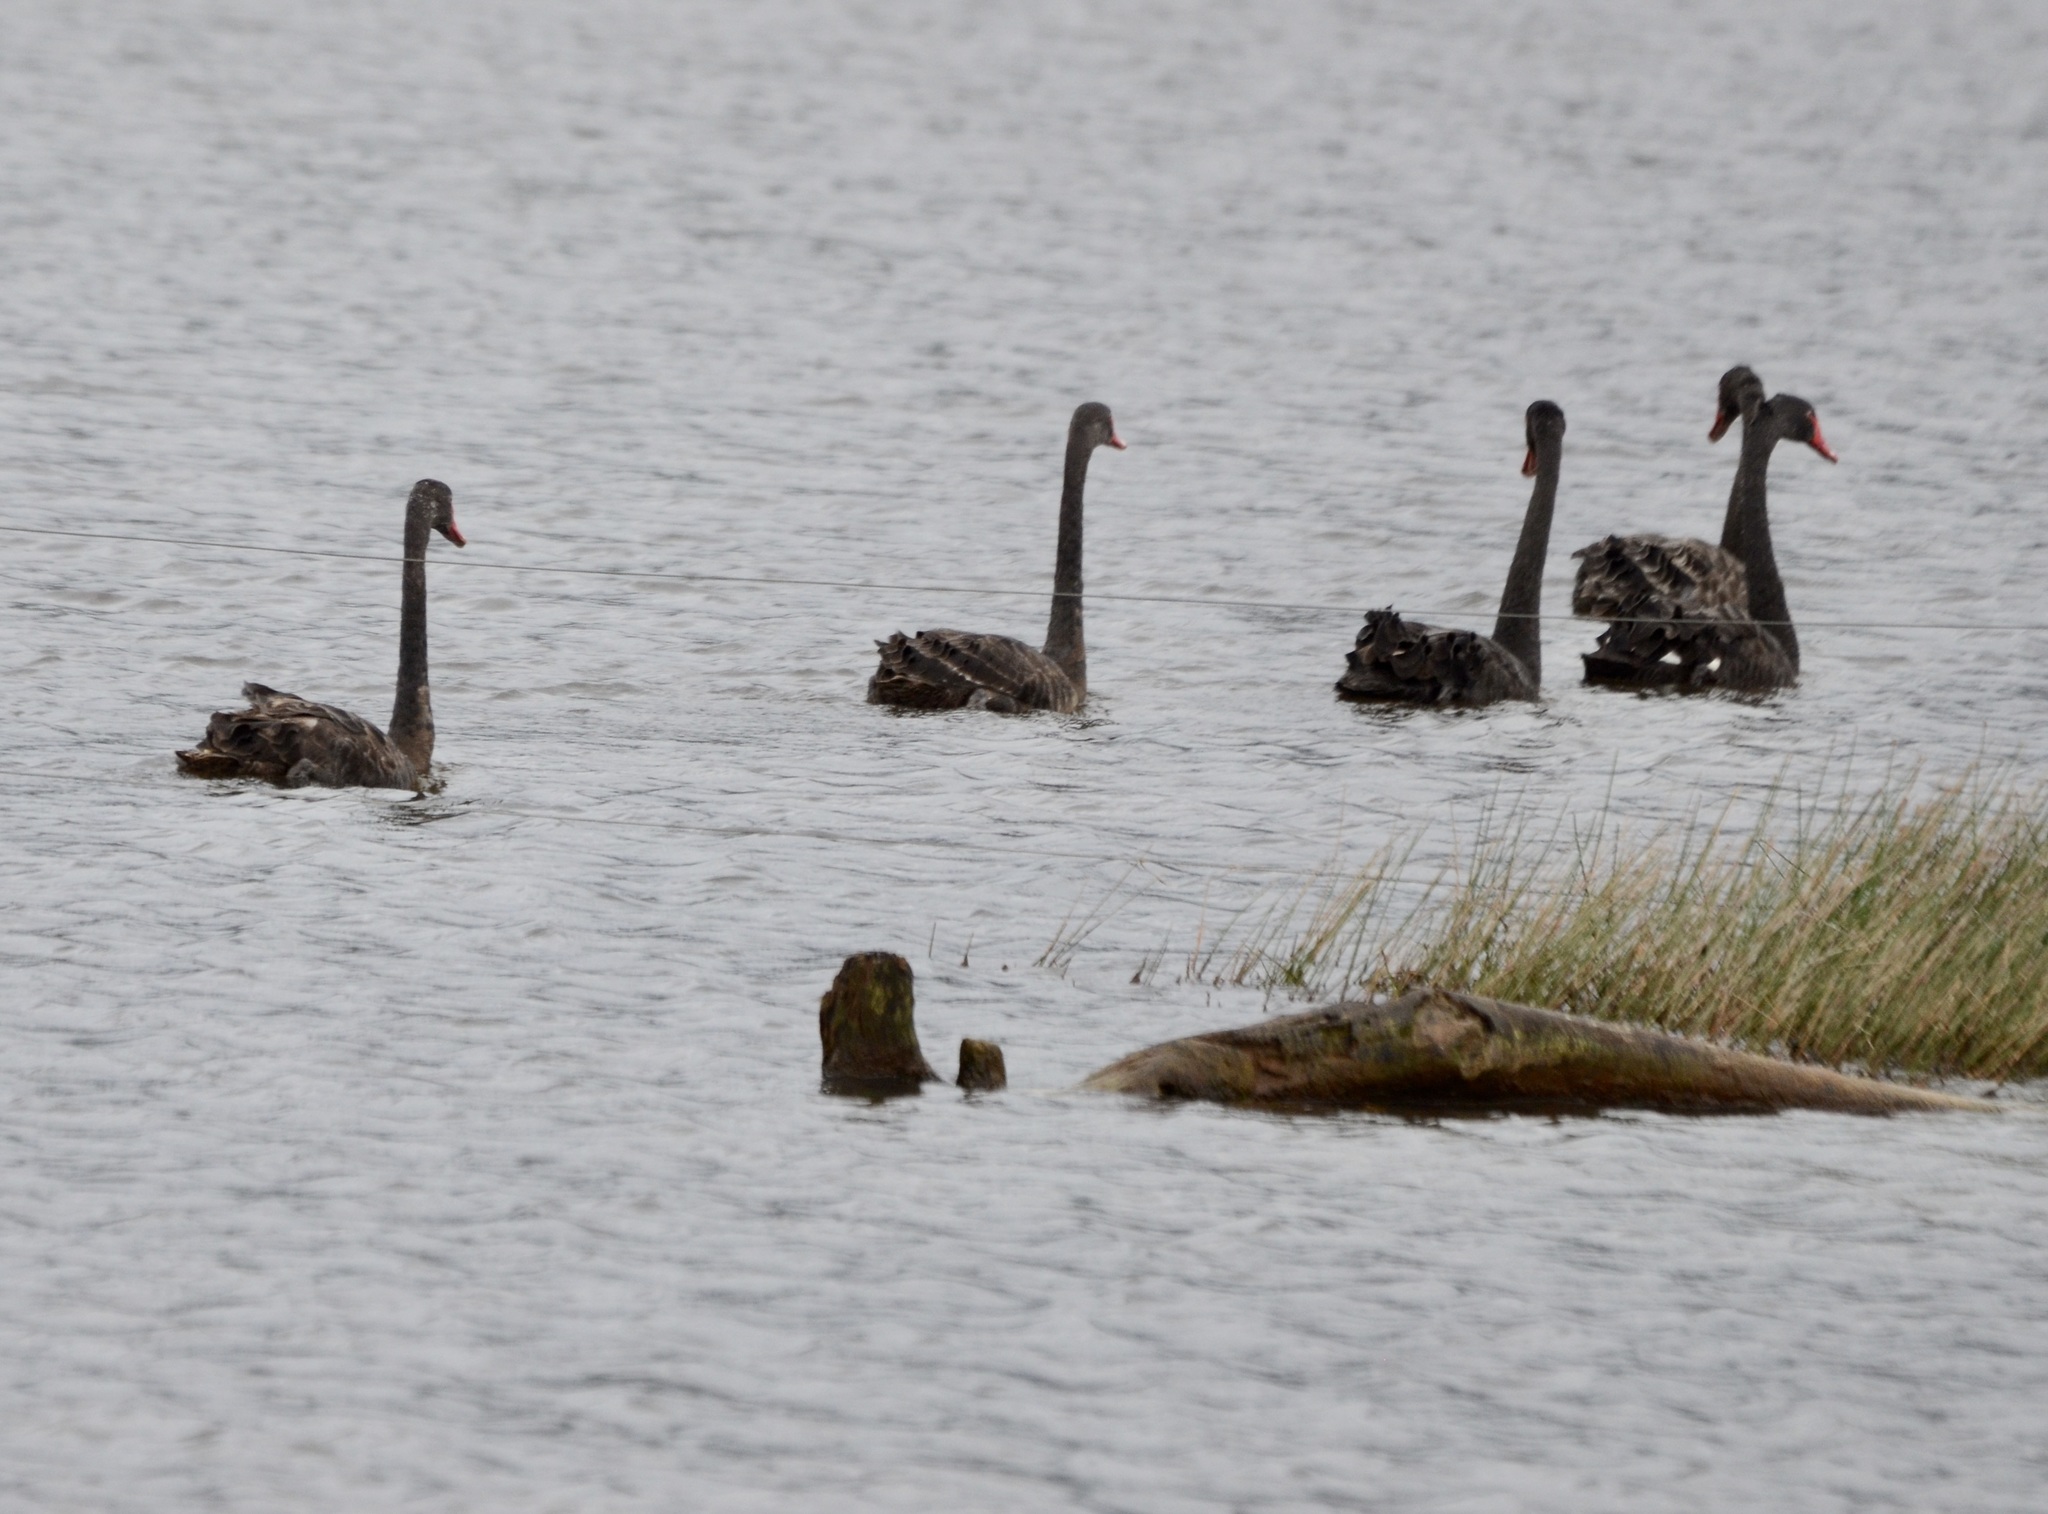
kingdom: Animalia
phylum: Chordata
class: Aves
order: Anseriformes
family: Anatidae
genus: Cygnus
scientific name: Cygnus atratus
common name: Black swan
